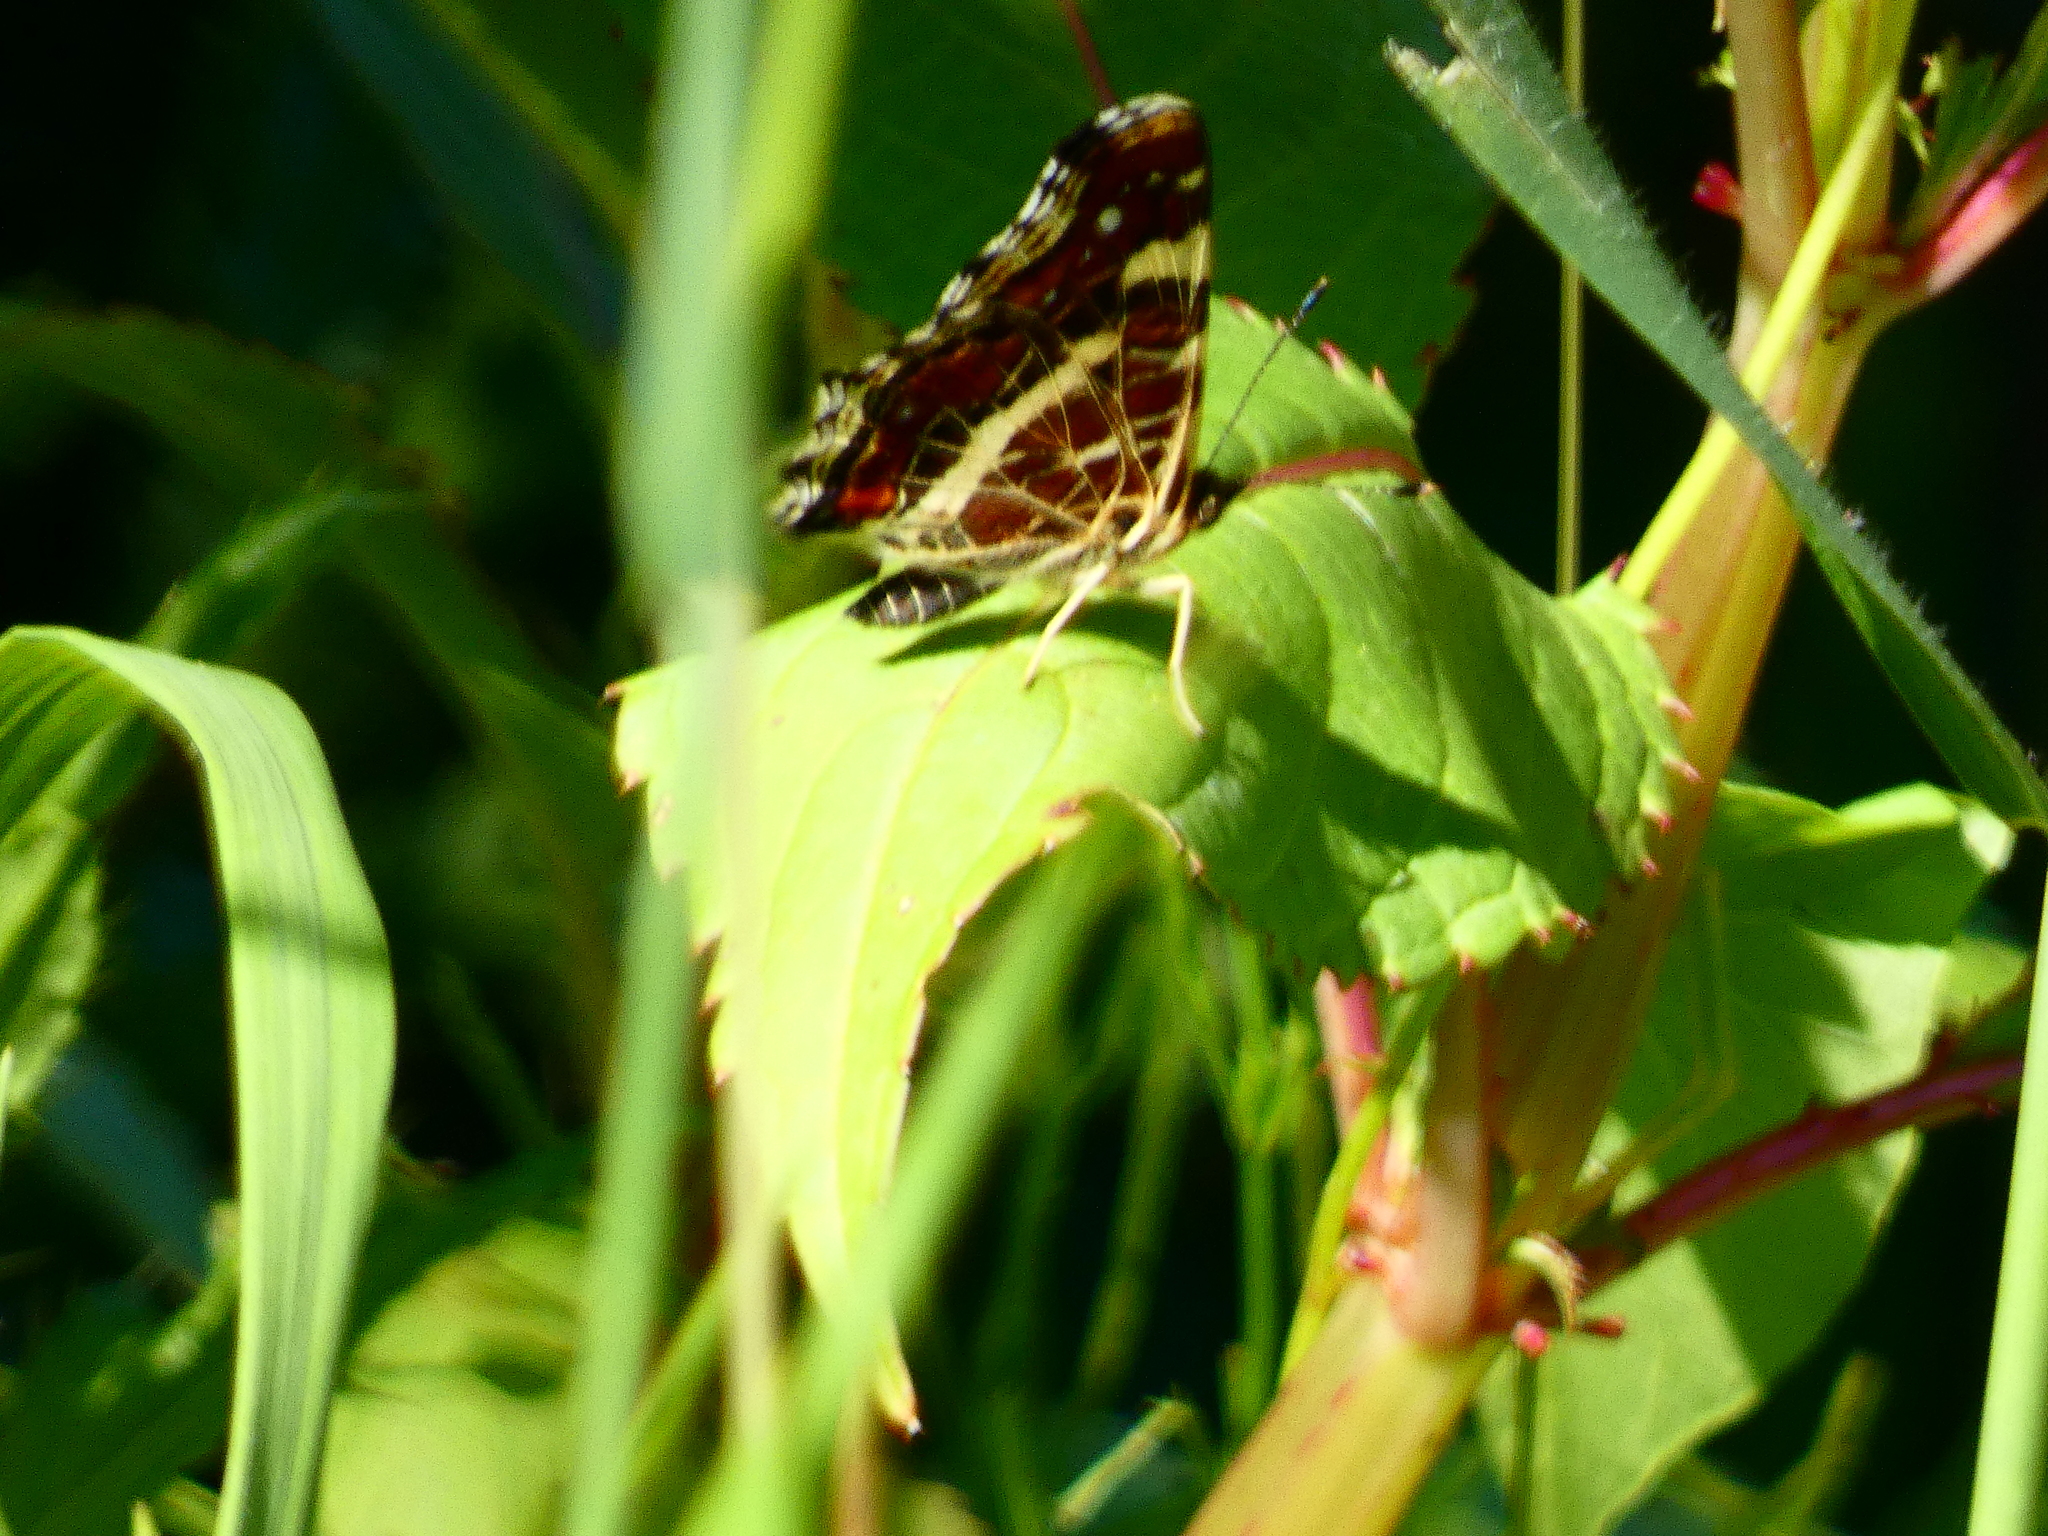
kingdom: Animalia
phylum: Arthropoda
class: Insecta
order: Lepidoptera
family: Nymphalidae
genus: Araschnia
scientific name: Araschnia levana
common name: Map butterfly
